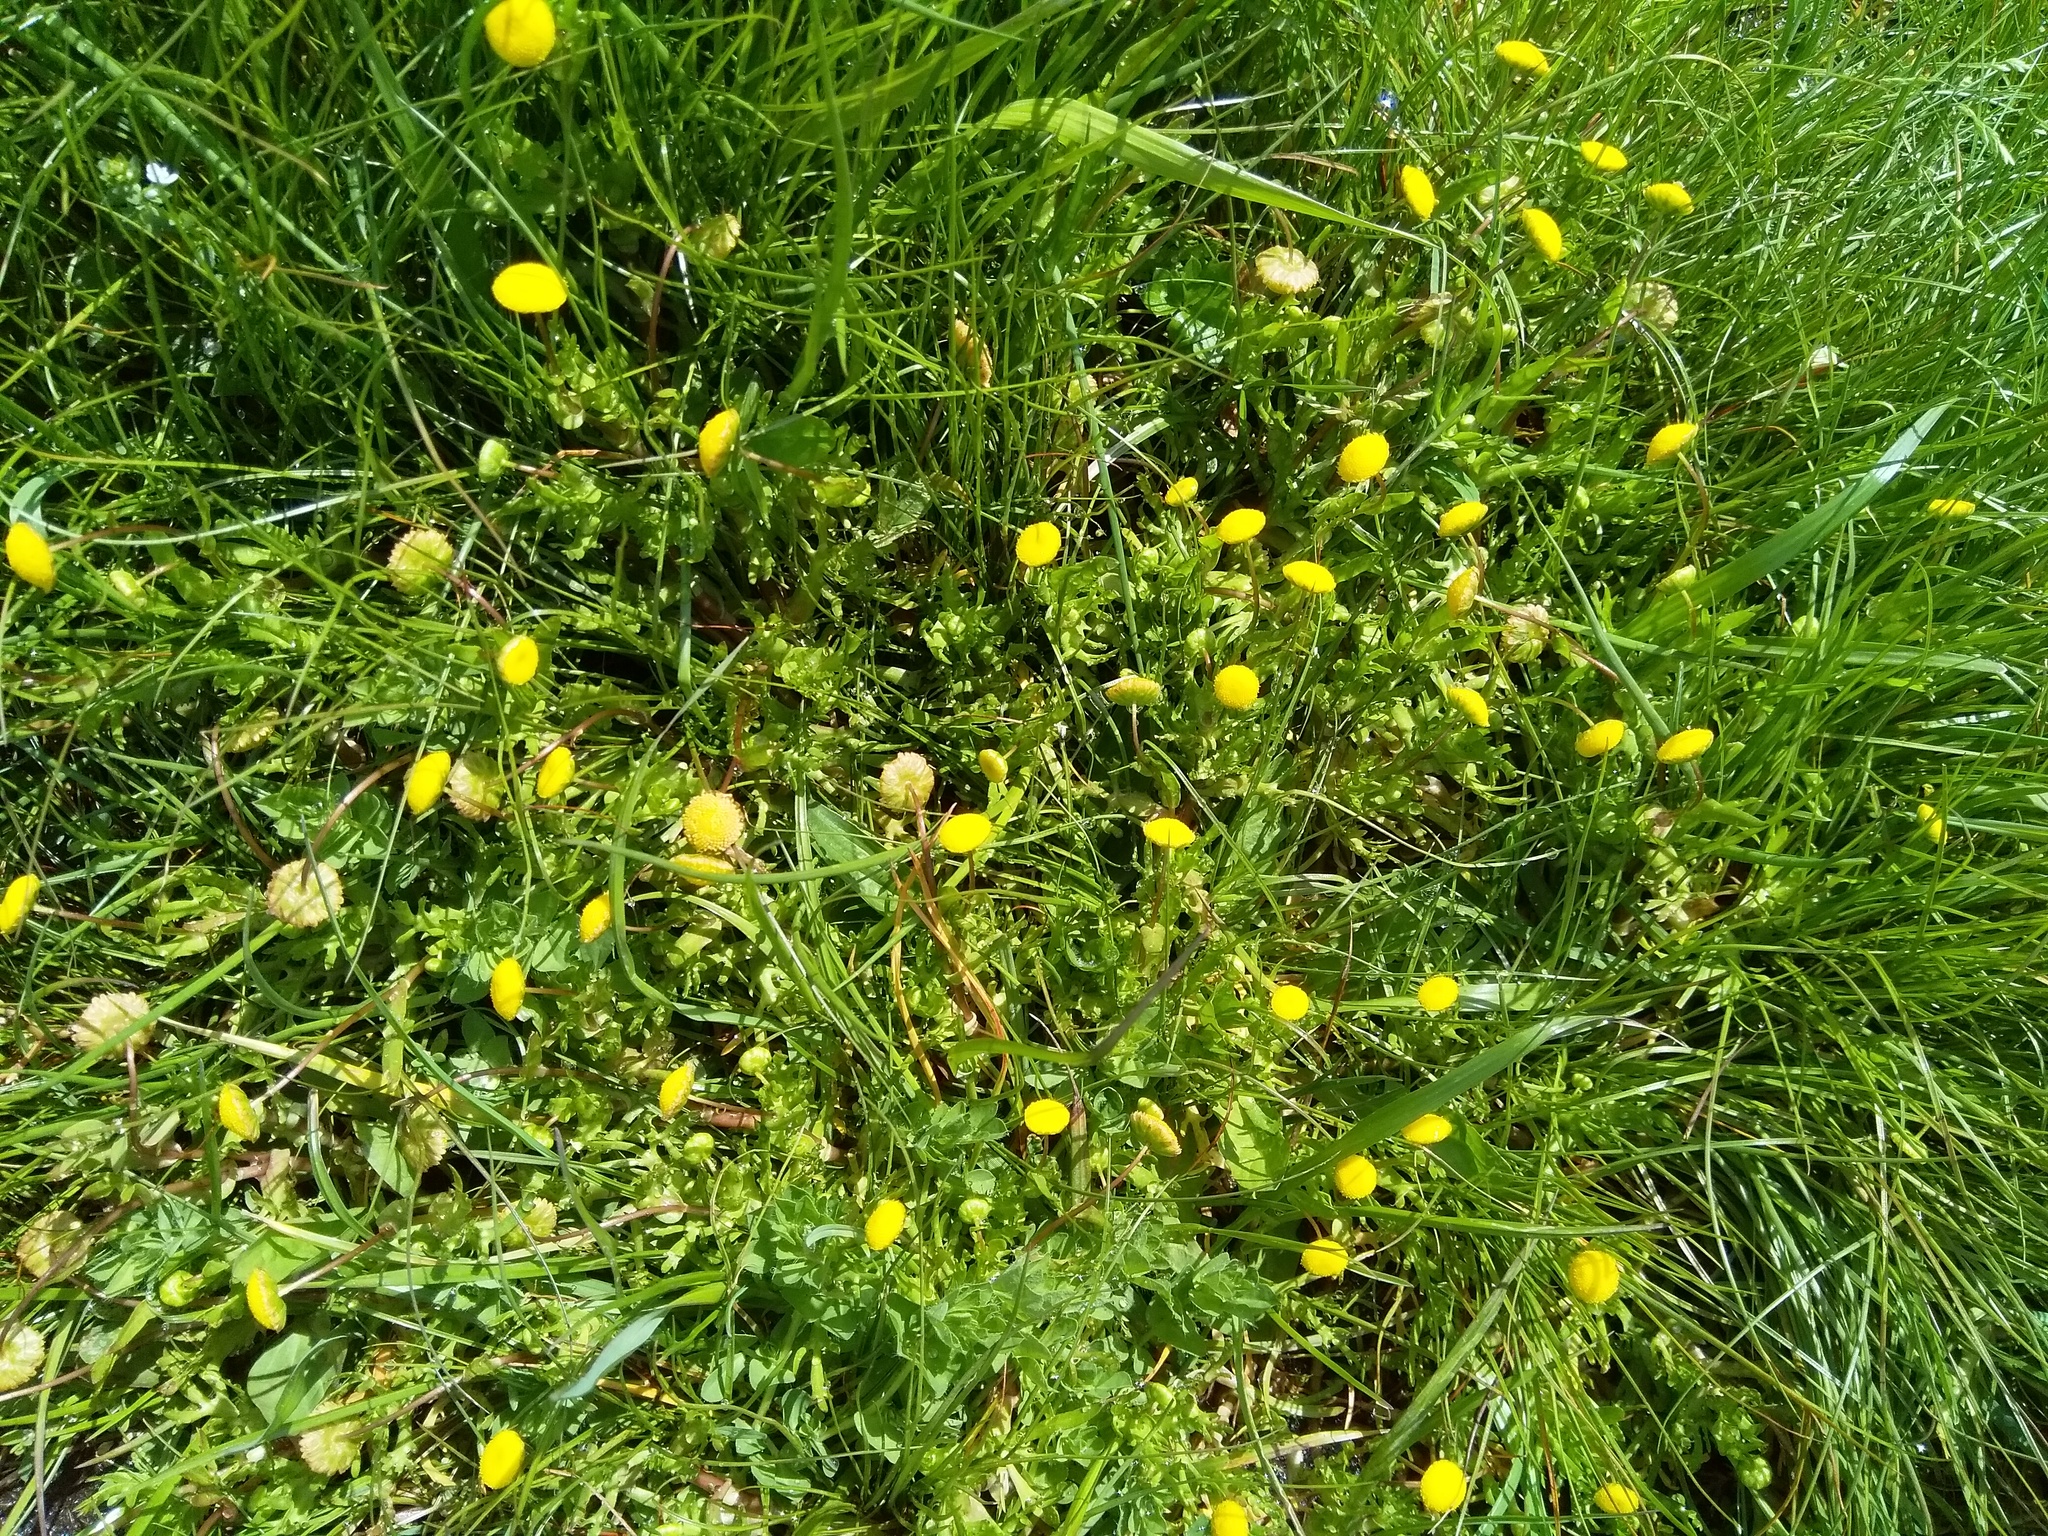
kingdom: Plantae
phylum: Tracheophyta
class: Magnoliopsida
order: Asterales
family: Asteraceae
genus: Cotula
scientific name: Cotula coronopifolia
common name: Buttonweed
